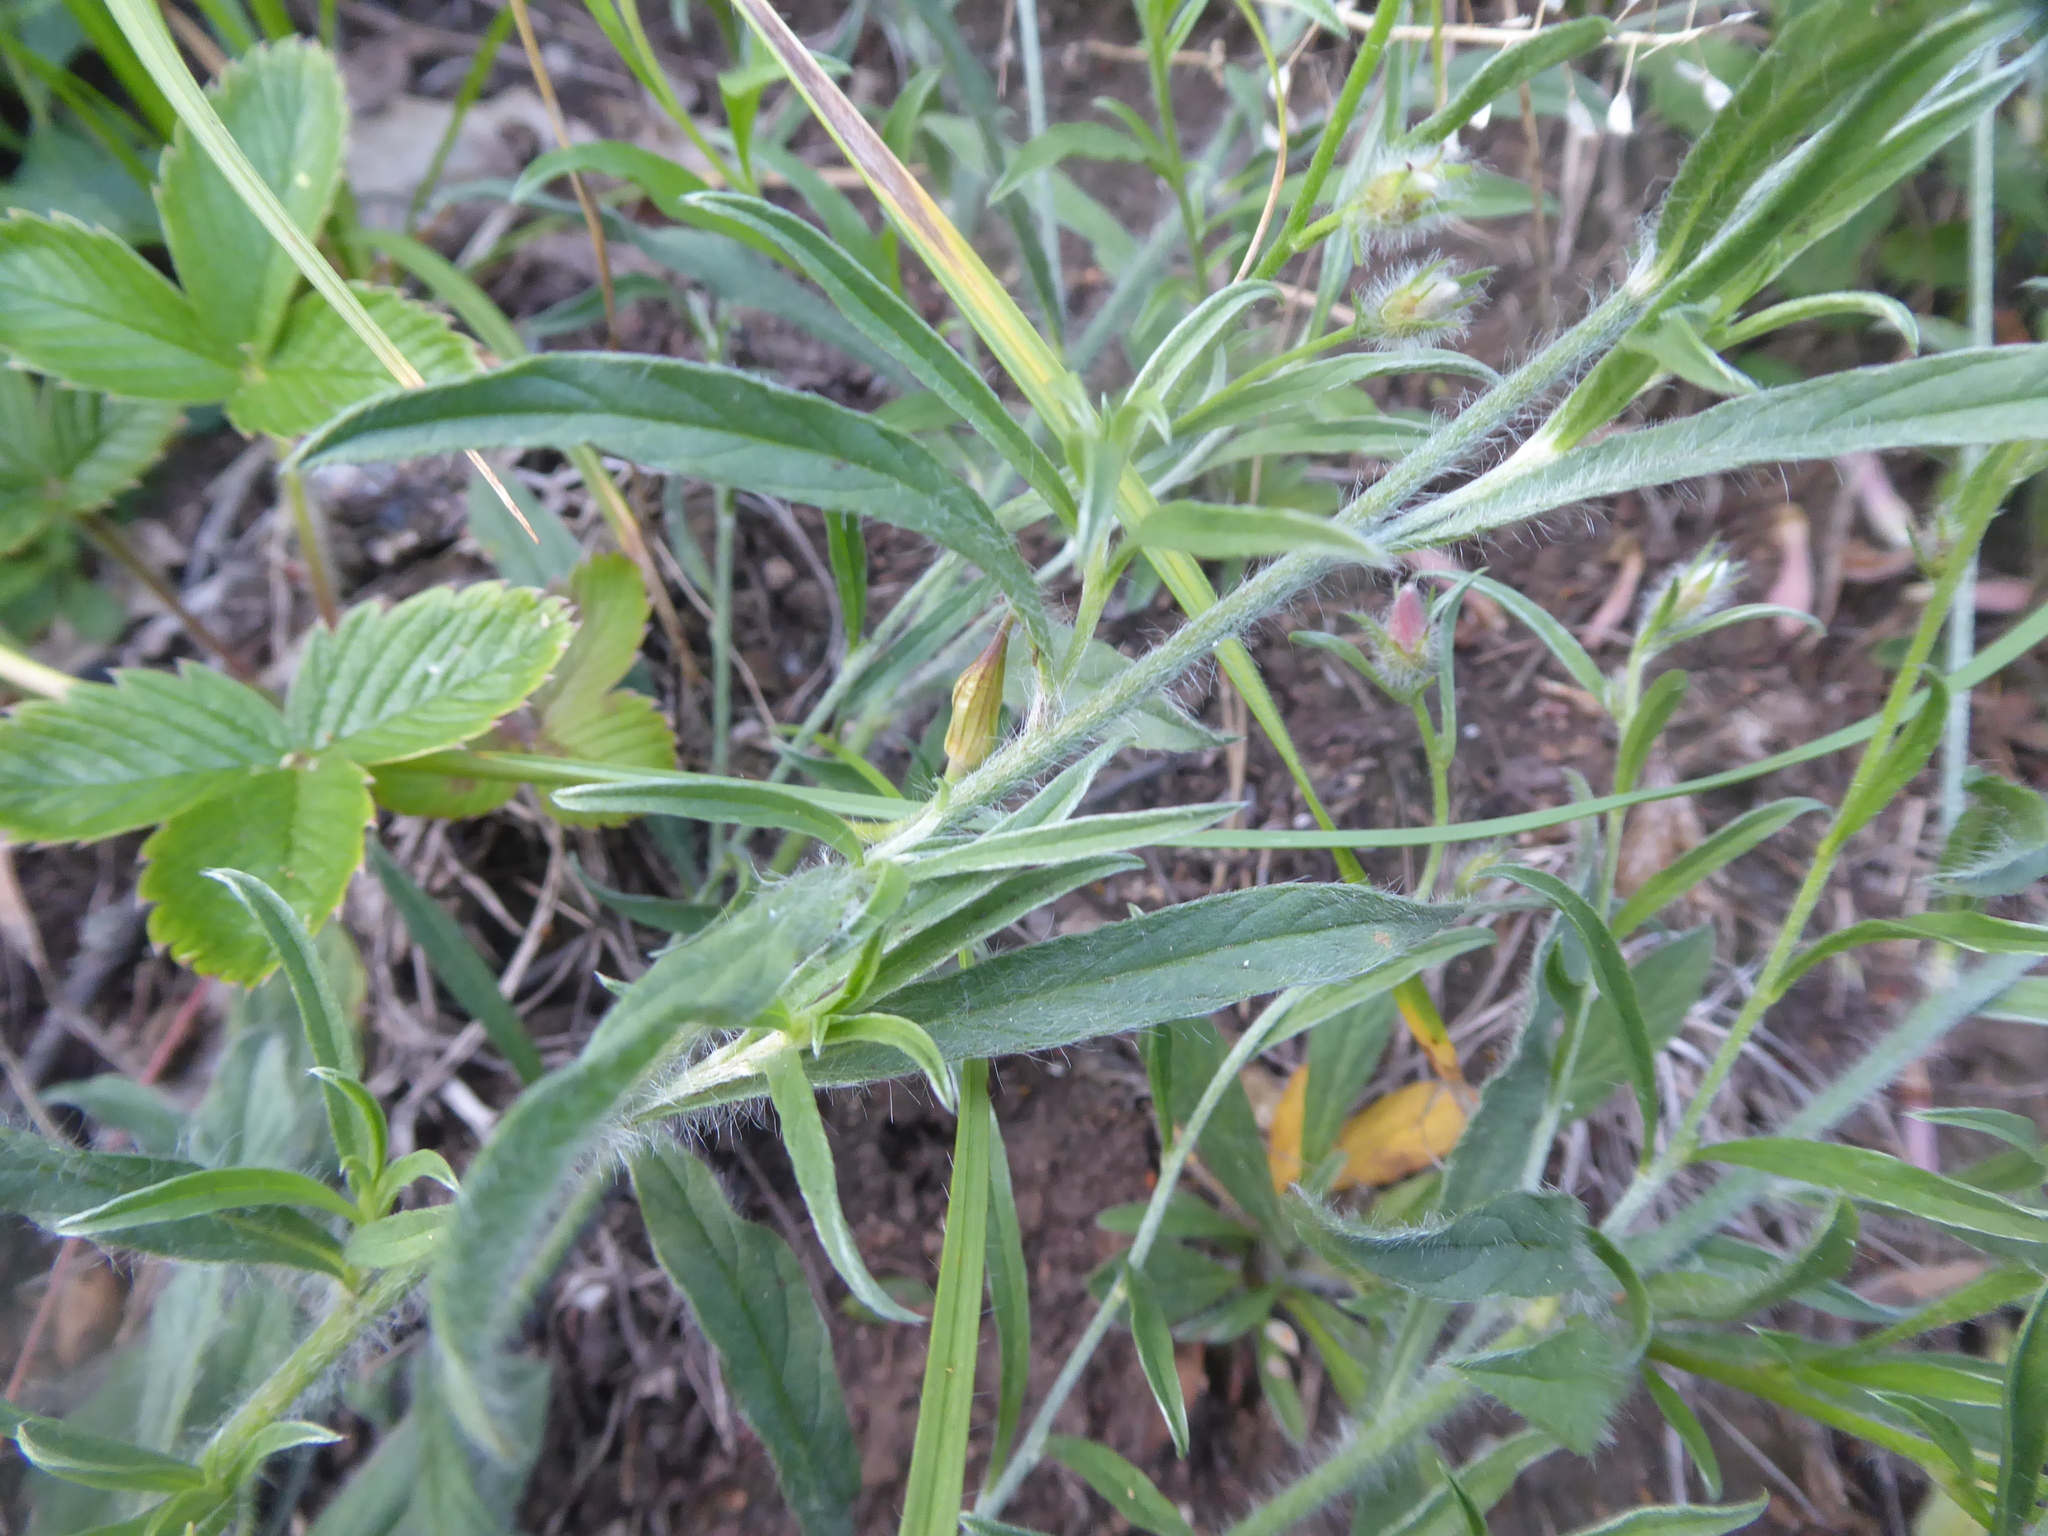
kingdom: Plantae
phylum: Tracheophyta
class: Magnoliopsida
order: Solanales
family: Convolvulaceae
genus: Convolvulus
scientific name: Convolvulus cantabrica
